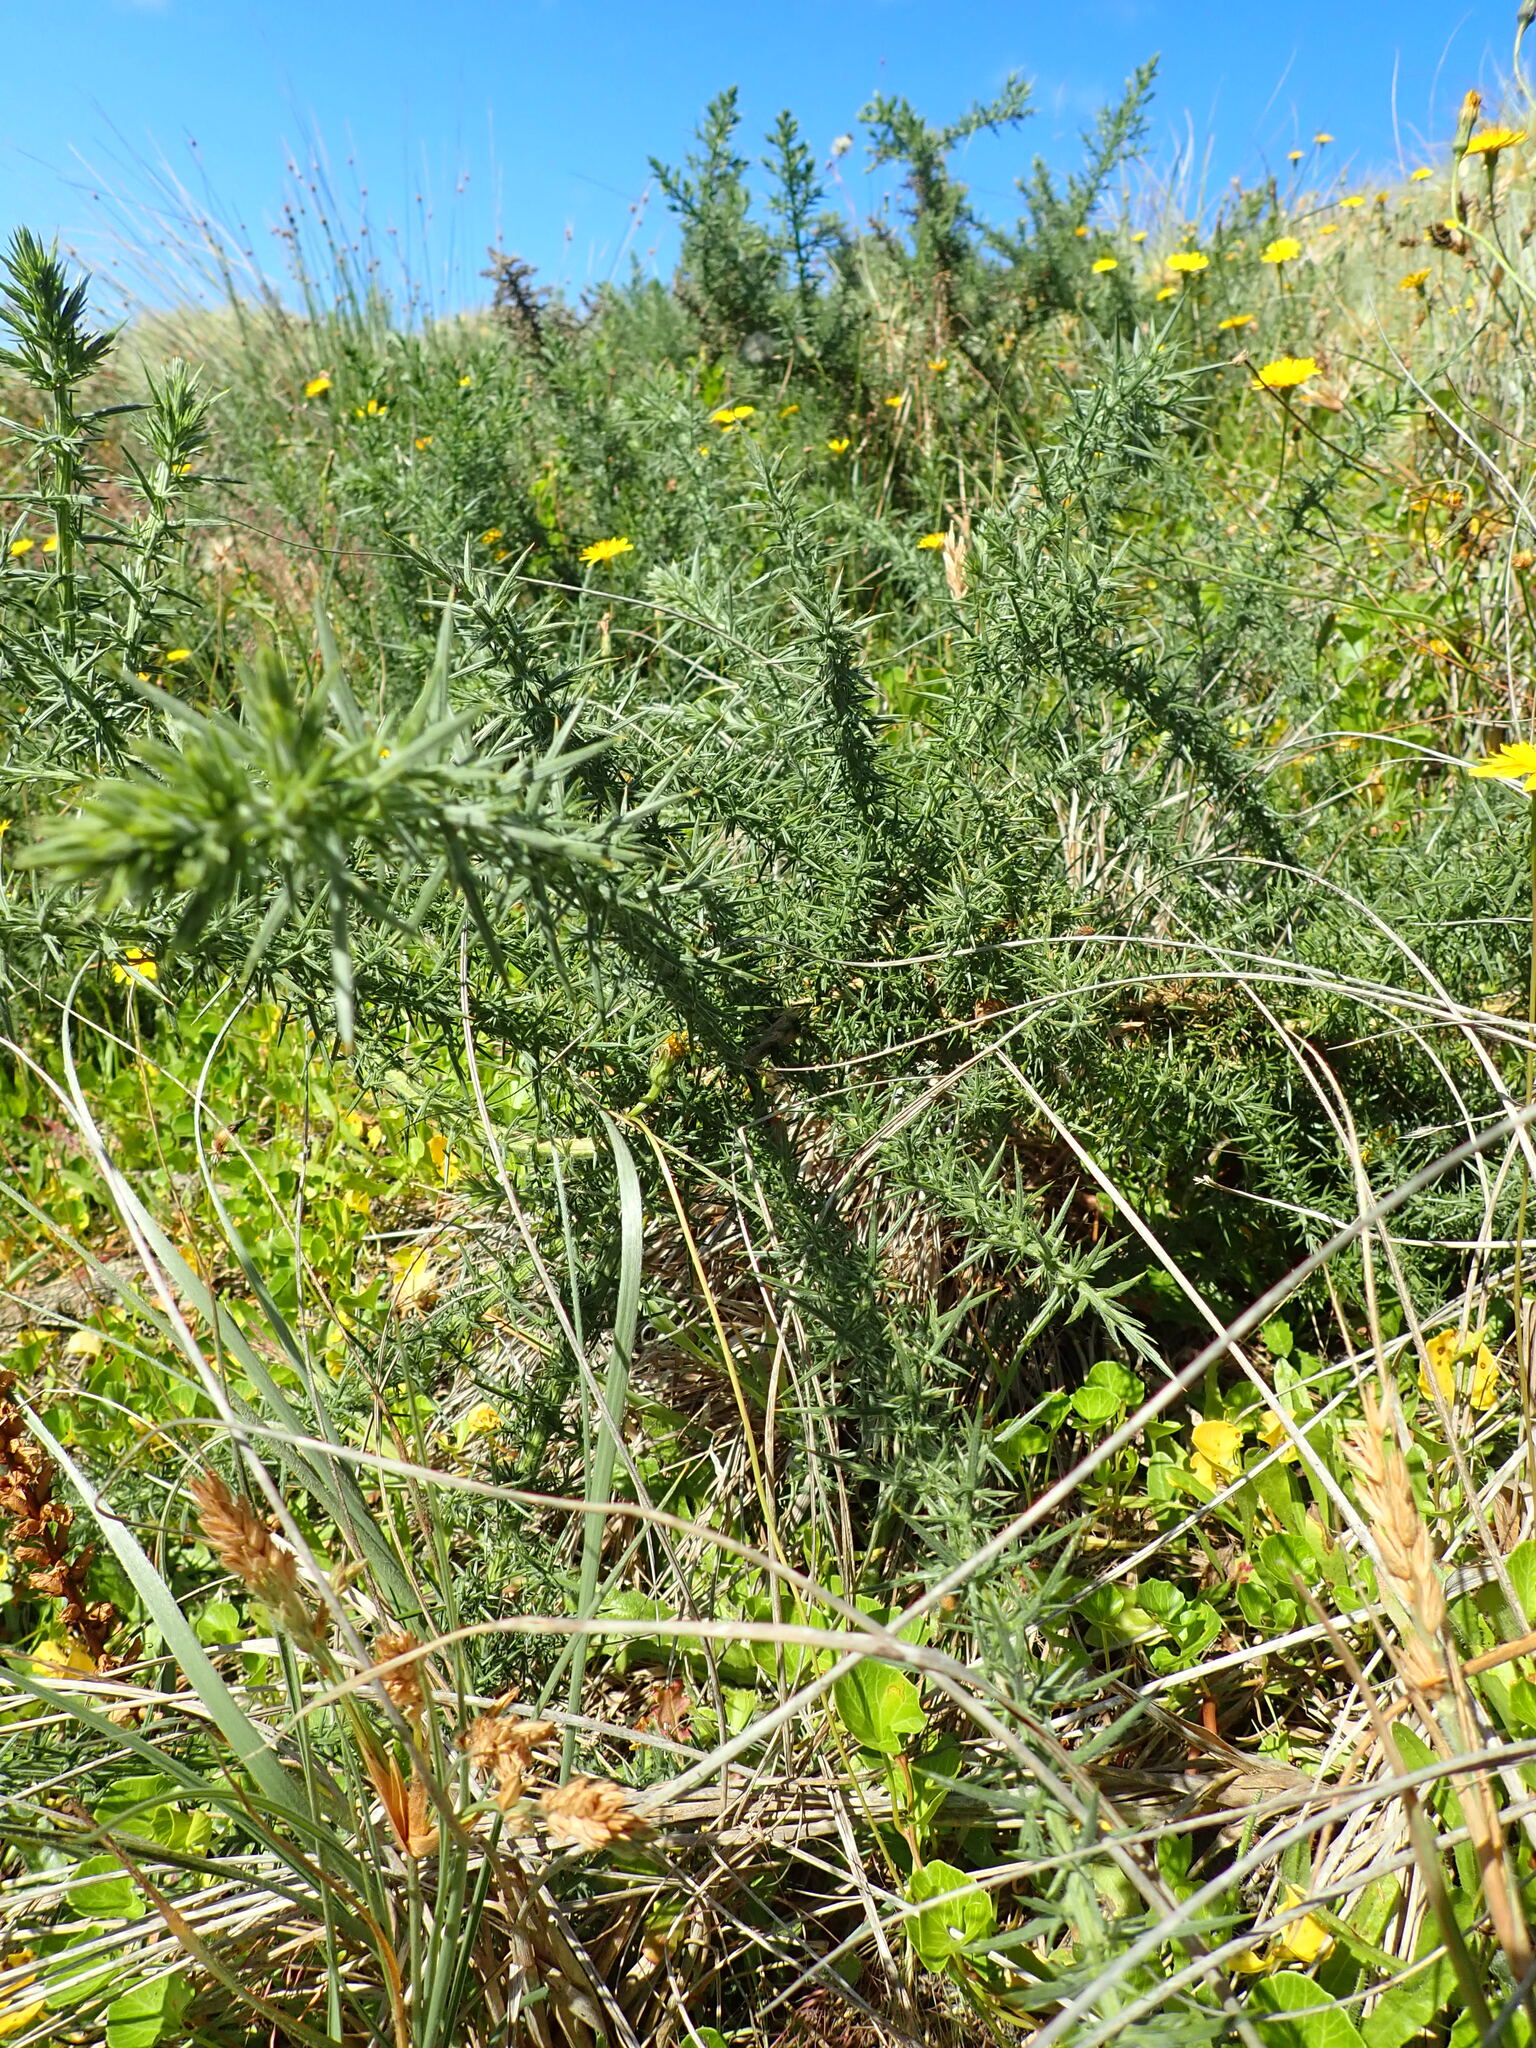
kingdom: Plantae
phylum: Tracheophyta
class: Magnoliopsida
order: Fabales
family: Fabaceae
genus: Ulex
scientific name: Ulex europaeus
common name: Common gorse
